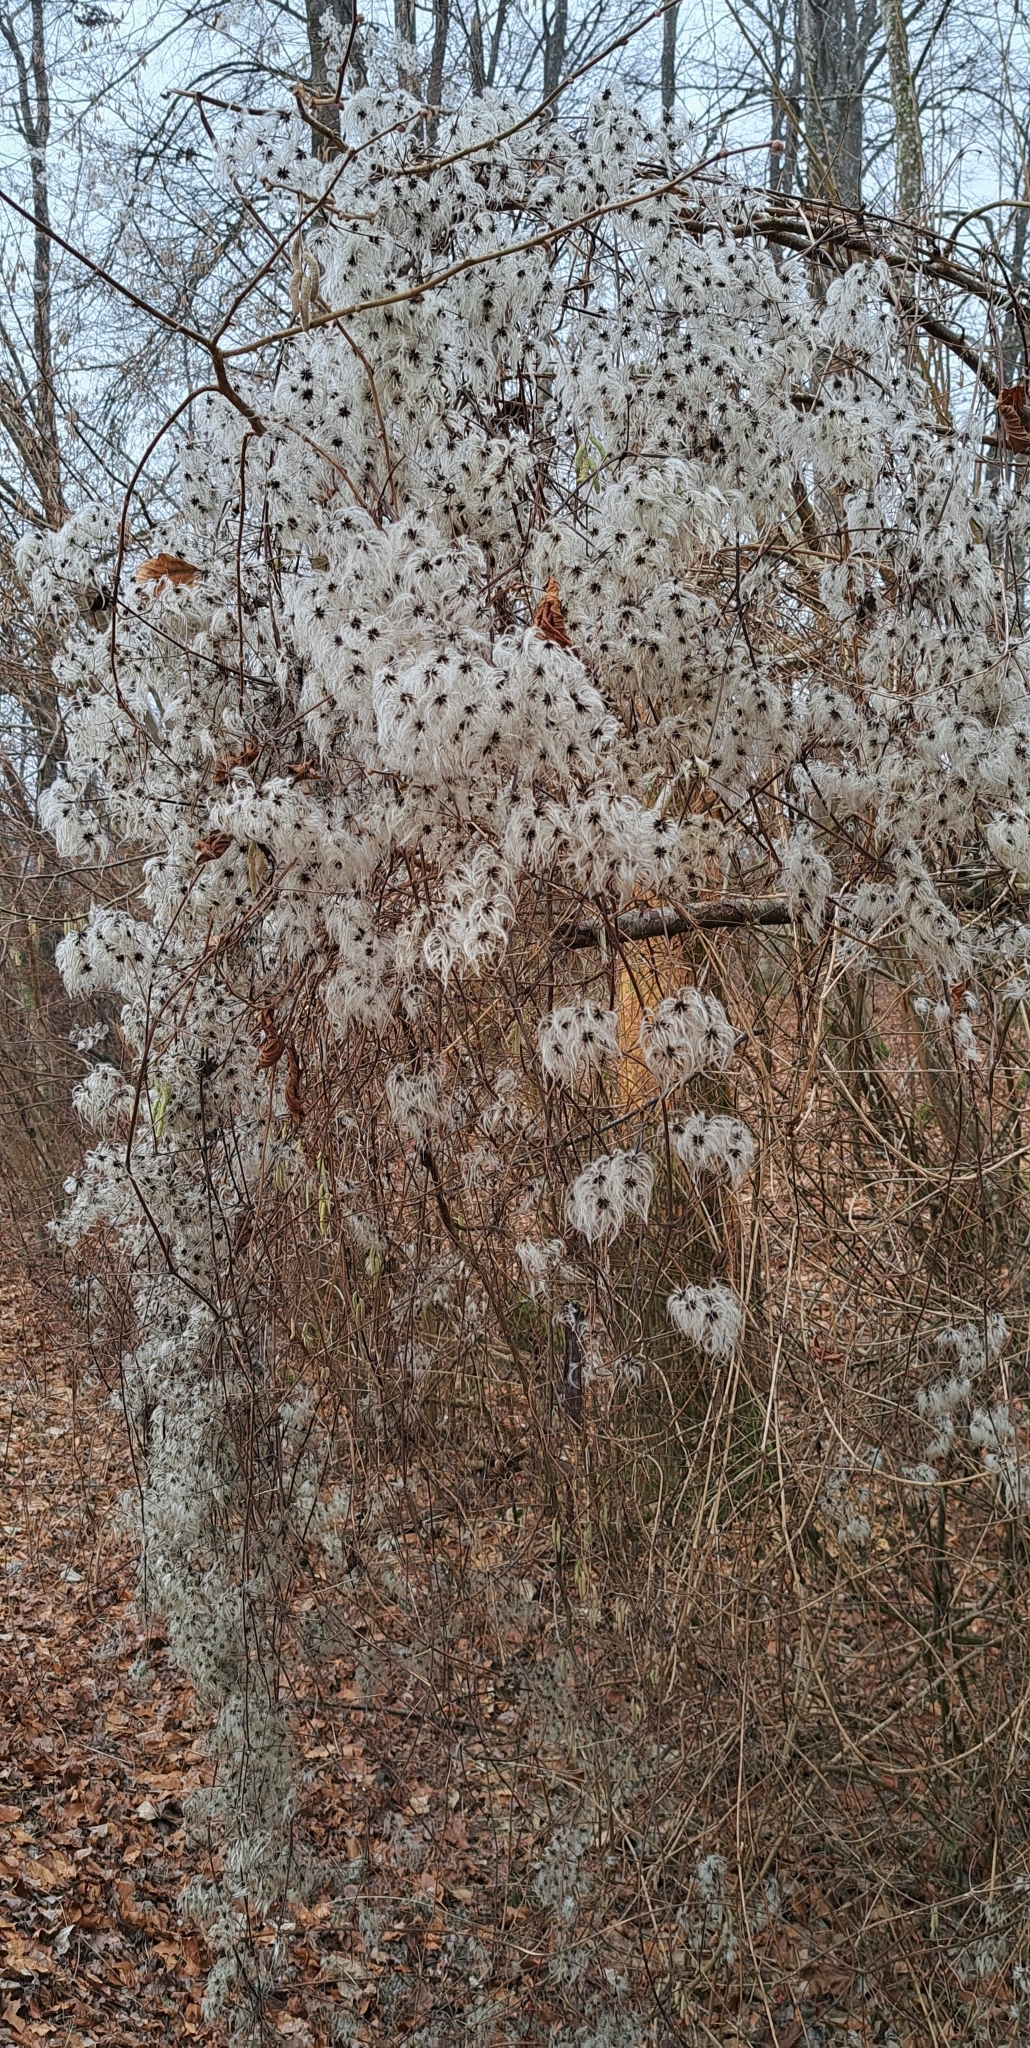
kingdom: Plantae
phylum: Tracheophyta
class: Magnoliopsida
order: Ranunculales
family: Ranunculaceae
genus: Clematis
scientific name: Clematis vitalba
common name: Evergreen clematis
